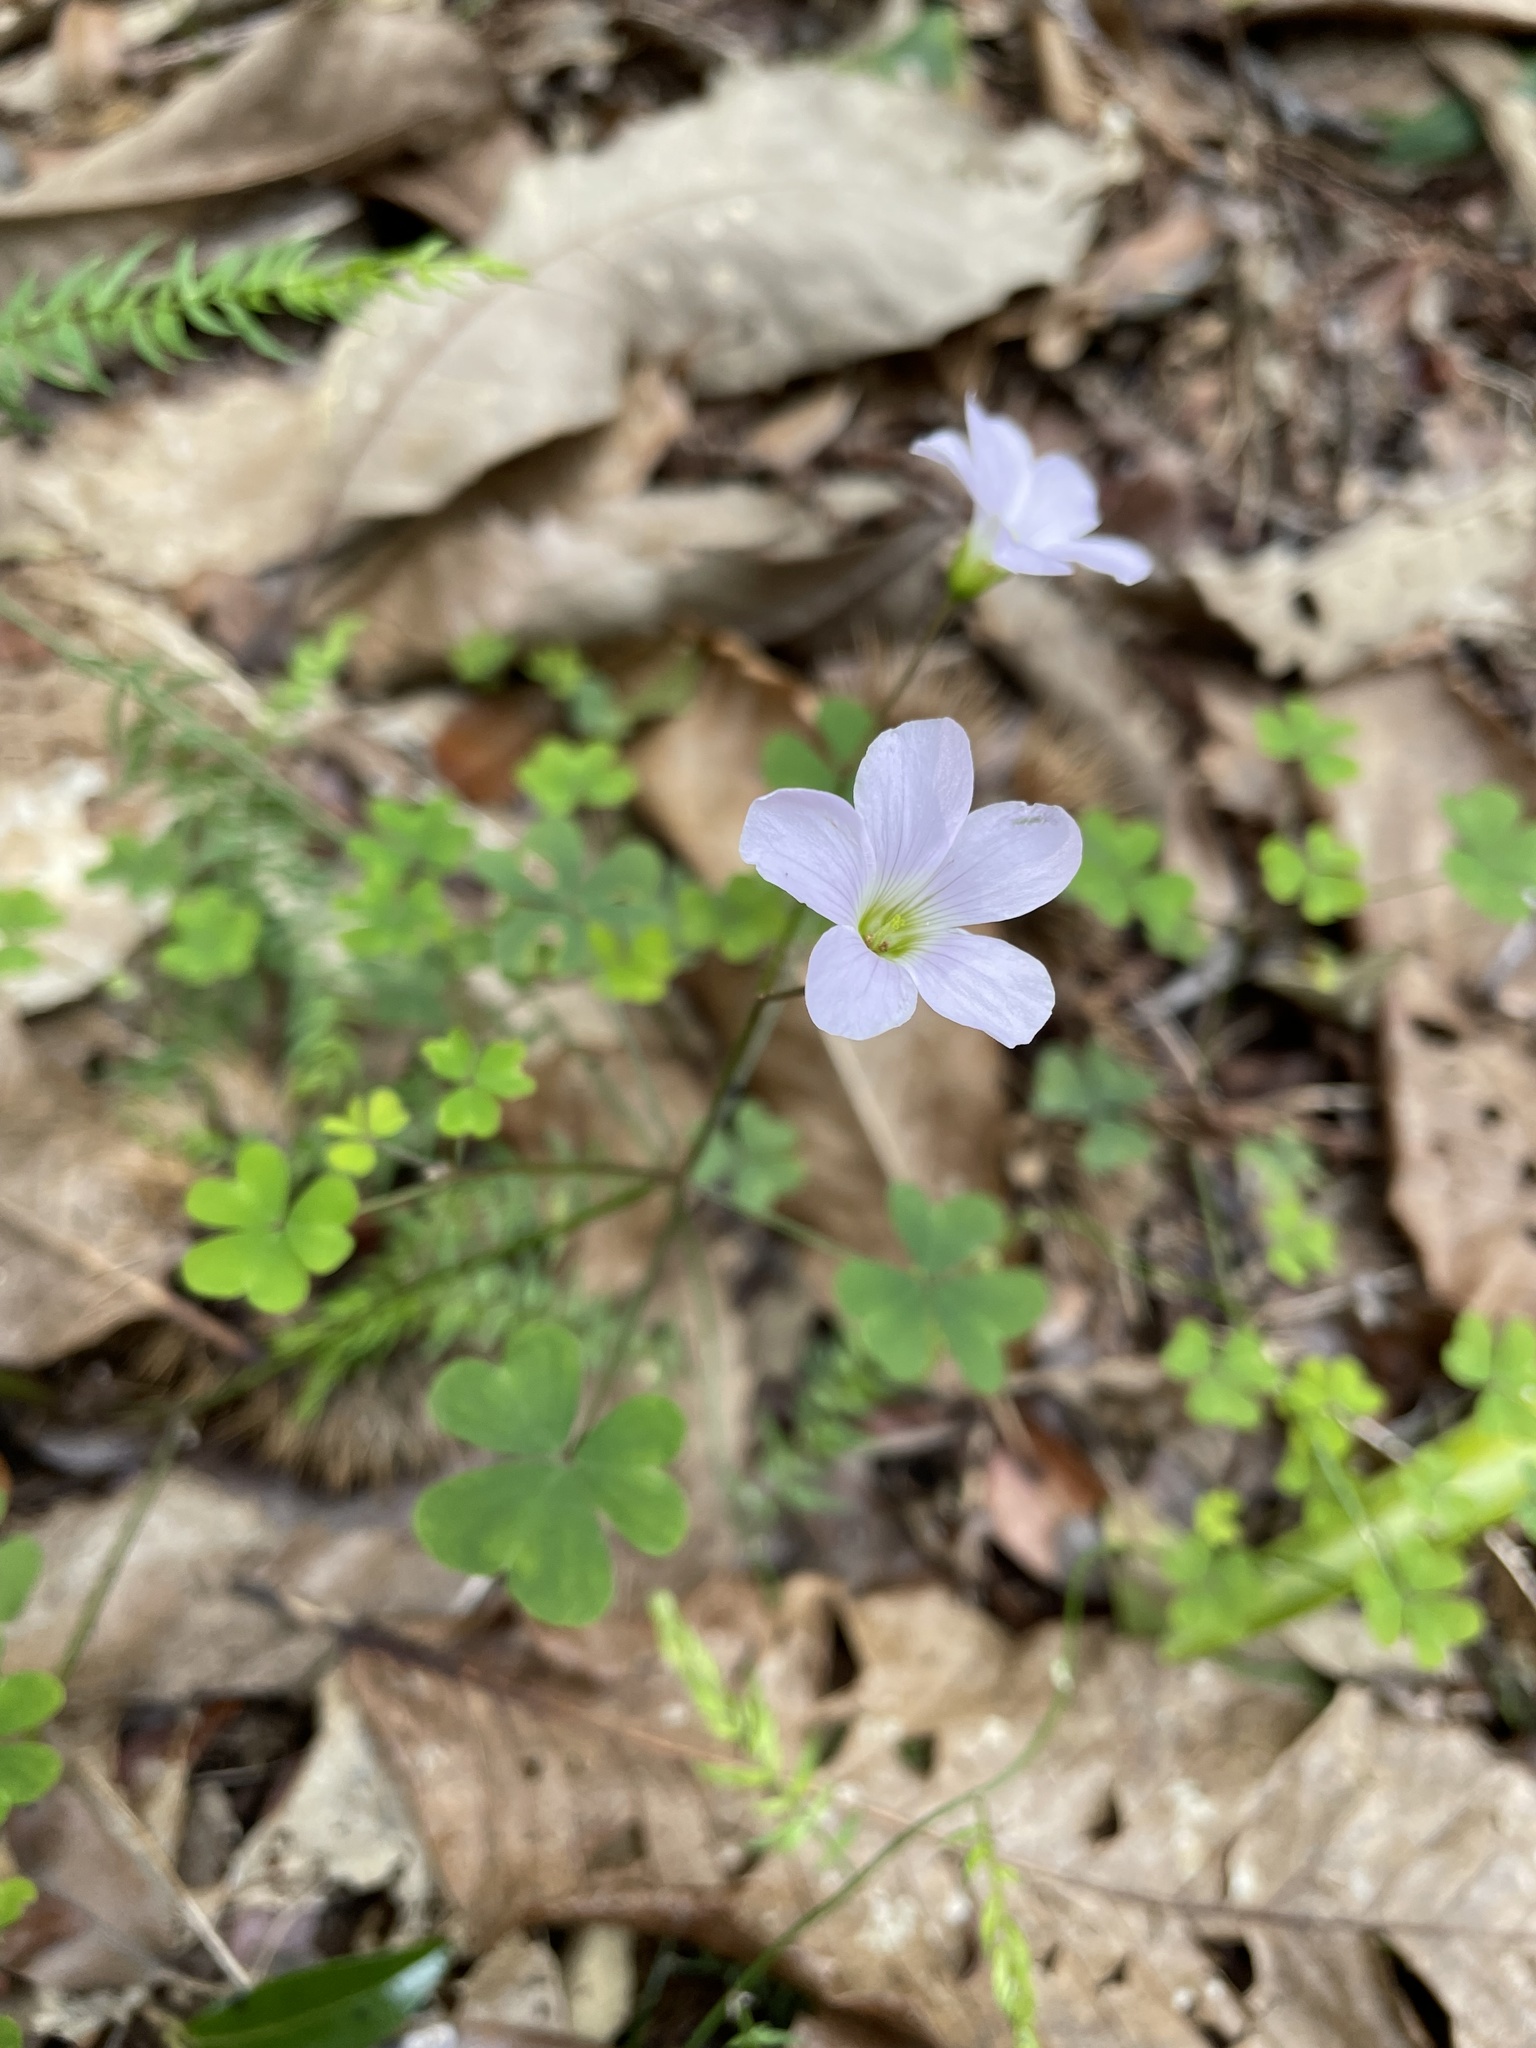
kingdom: Plantae
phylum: Tracheophyta
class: Magnoliopsida
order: Oxalidales
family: Oxalidaceae
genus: Oxalis
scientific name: Oxalis incarnata
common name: Pale pink-sorrel
